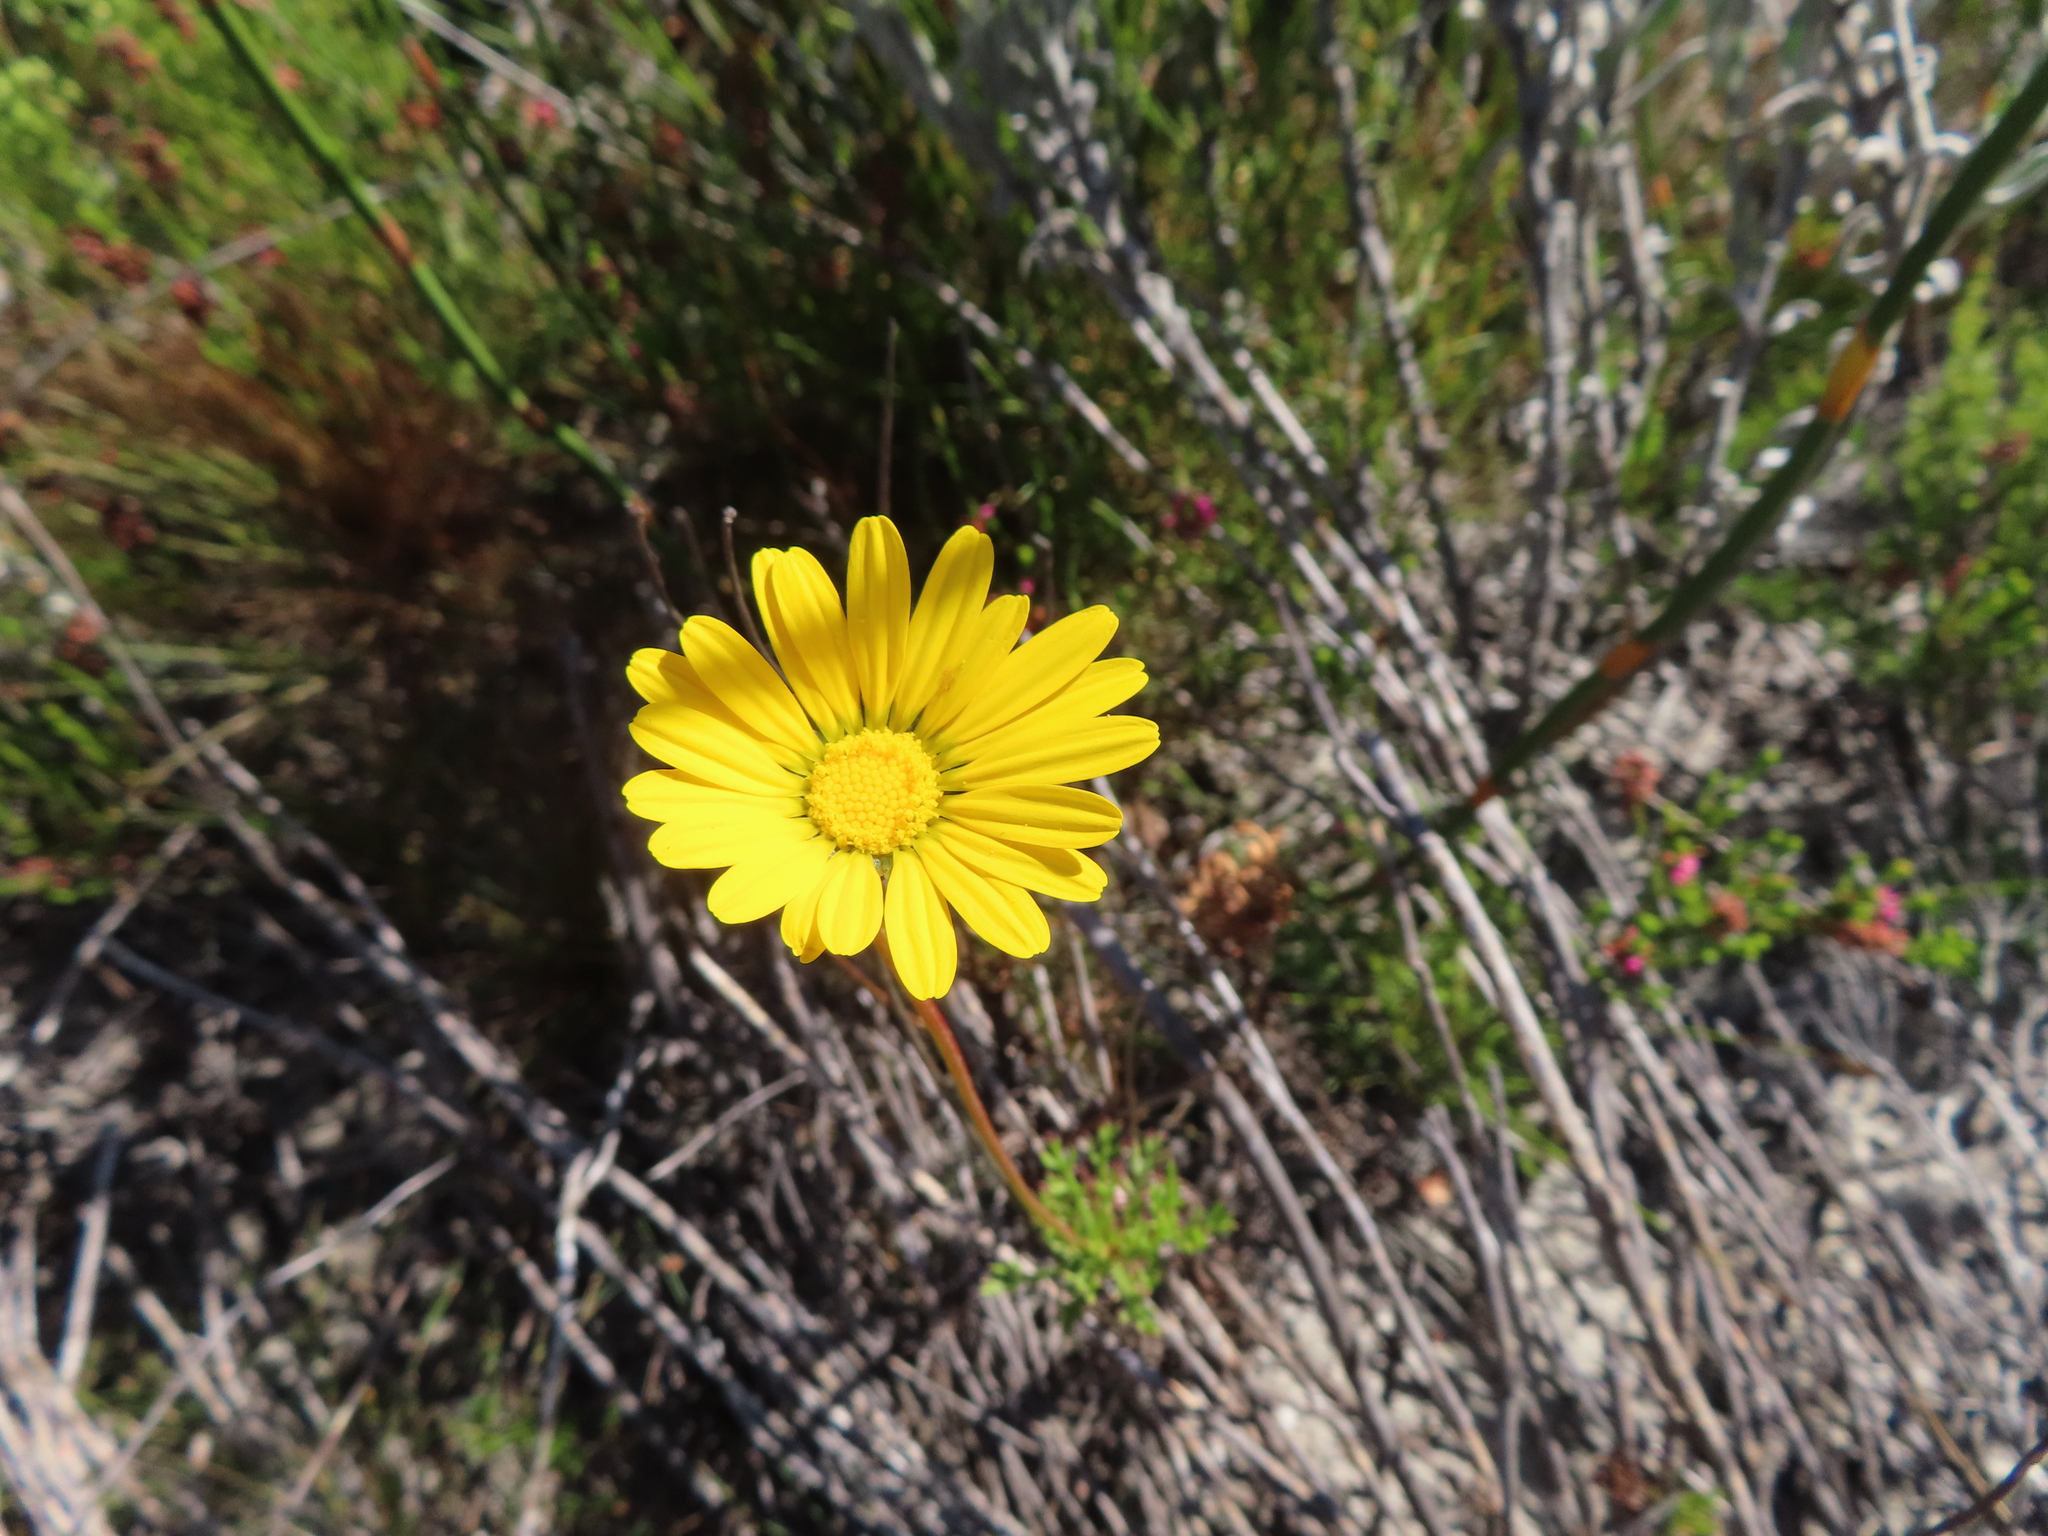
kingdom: Plantae
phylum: Tracheophyta
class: Magnoliopsida
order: Asterales
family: Asteraceae
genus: Ursinia
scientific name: Ursinia paleacea
